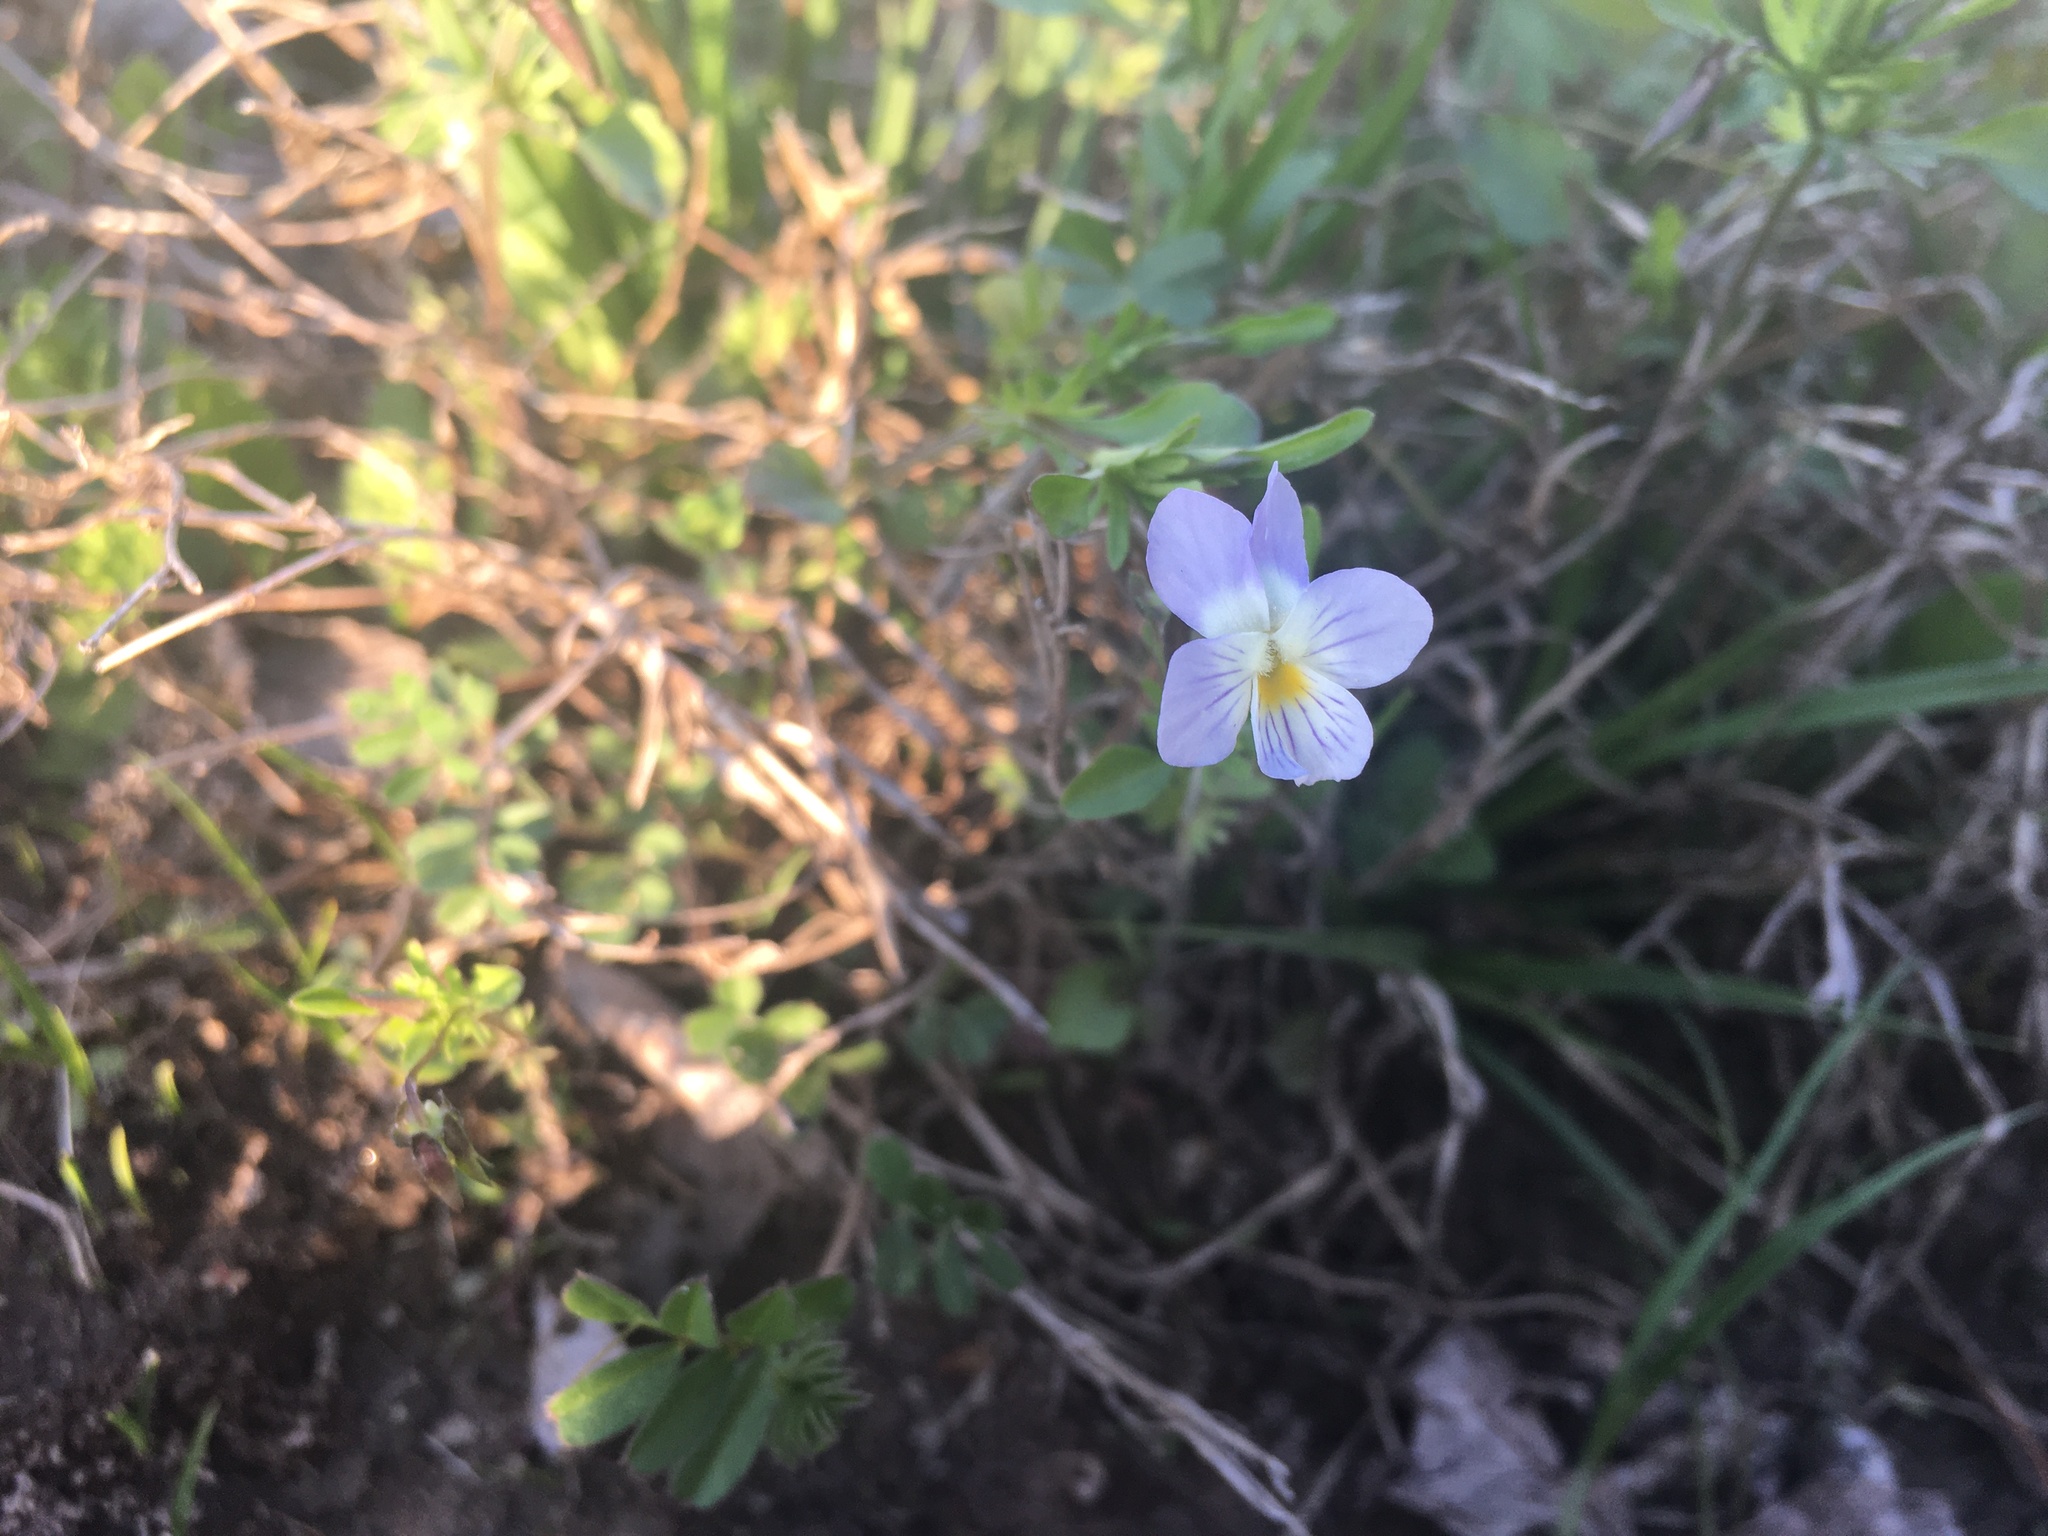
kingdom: Plantae
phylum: Tracheophyta
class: Magnoliopsida
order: Malpighiales
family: Violaceae
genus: Viola
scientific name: Viola rafinesquei
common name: American field pansy
